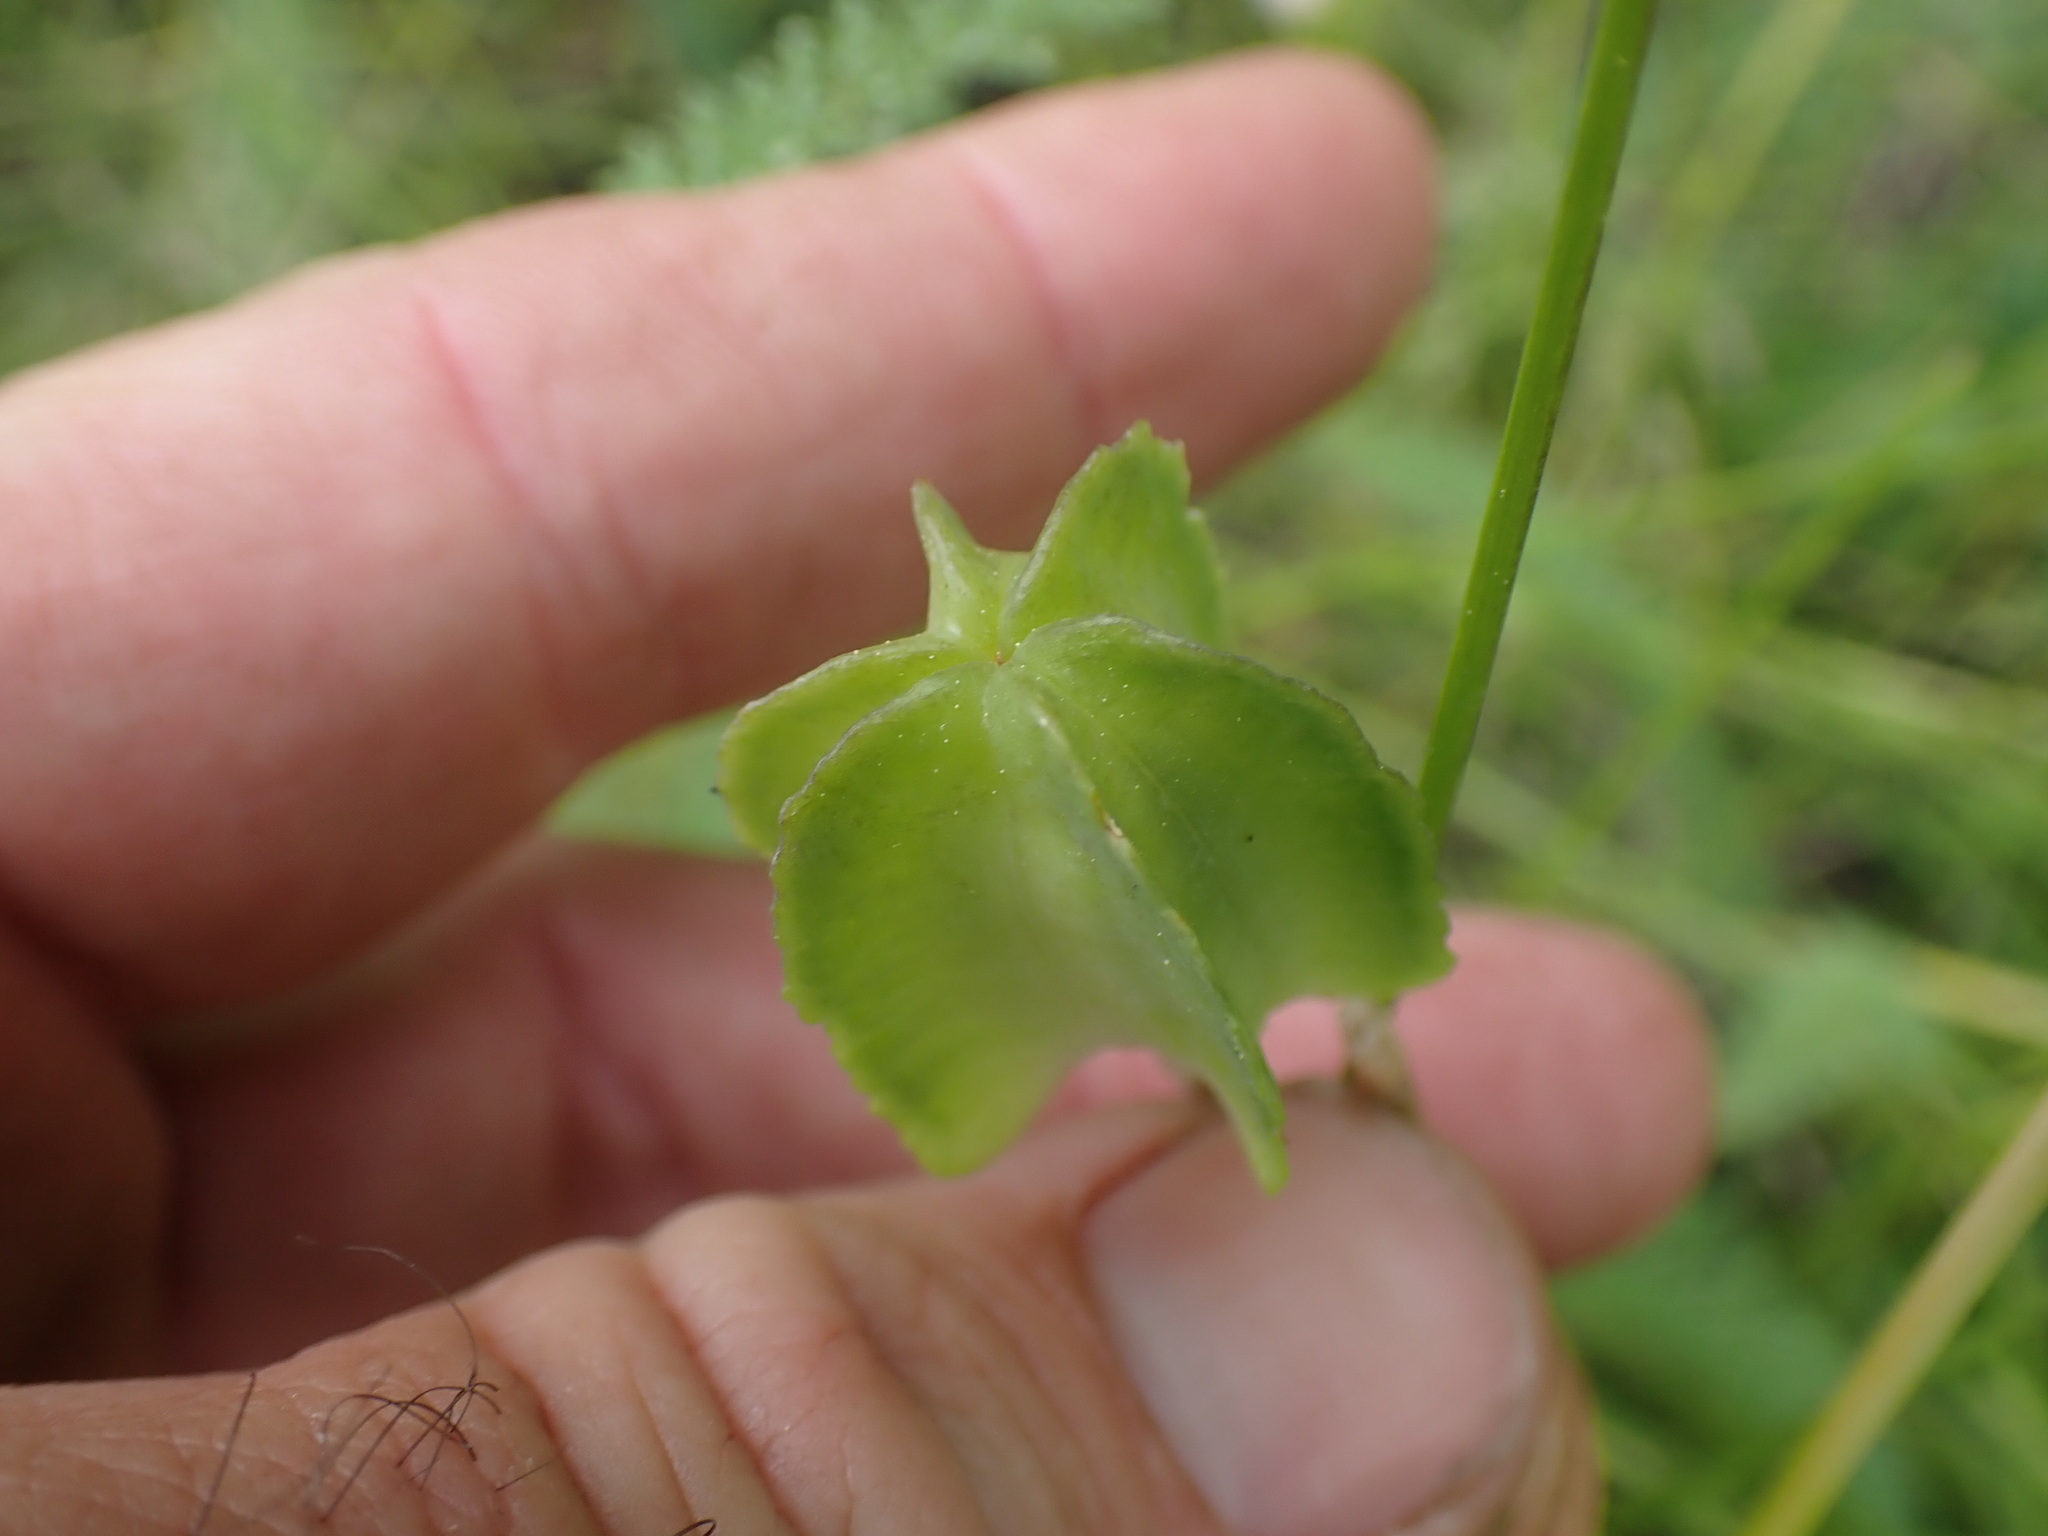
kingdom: Plantae
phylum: Tracheophyta
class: Liliopsida
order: Liliales
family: Liliaceae
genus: Fritillaria
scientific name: Fritillaria affinis
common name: Ojai fritillary
